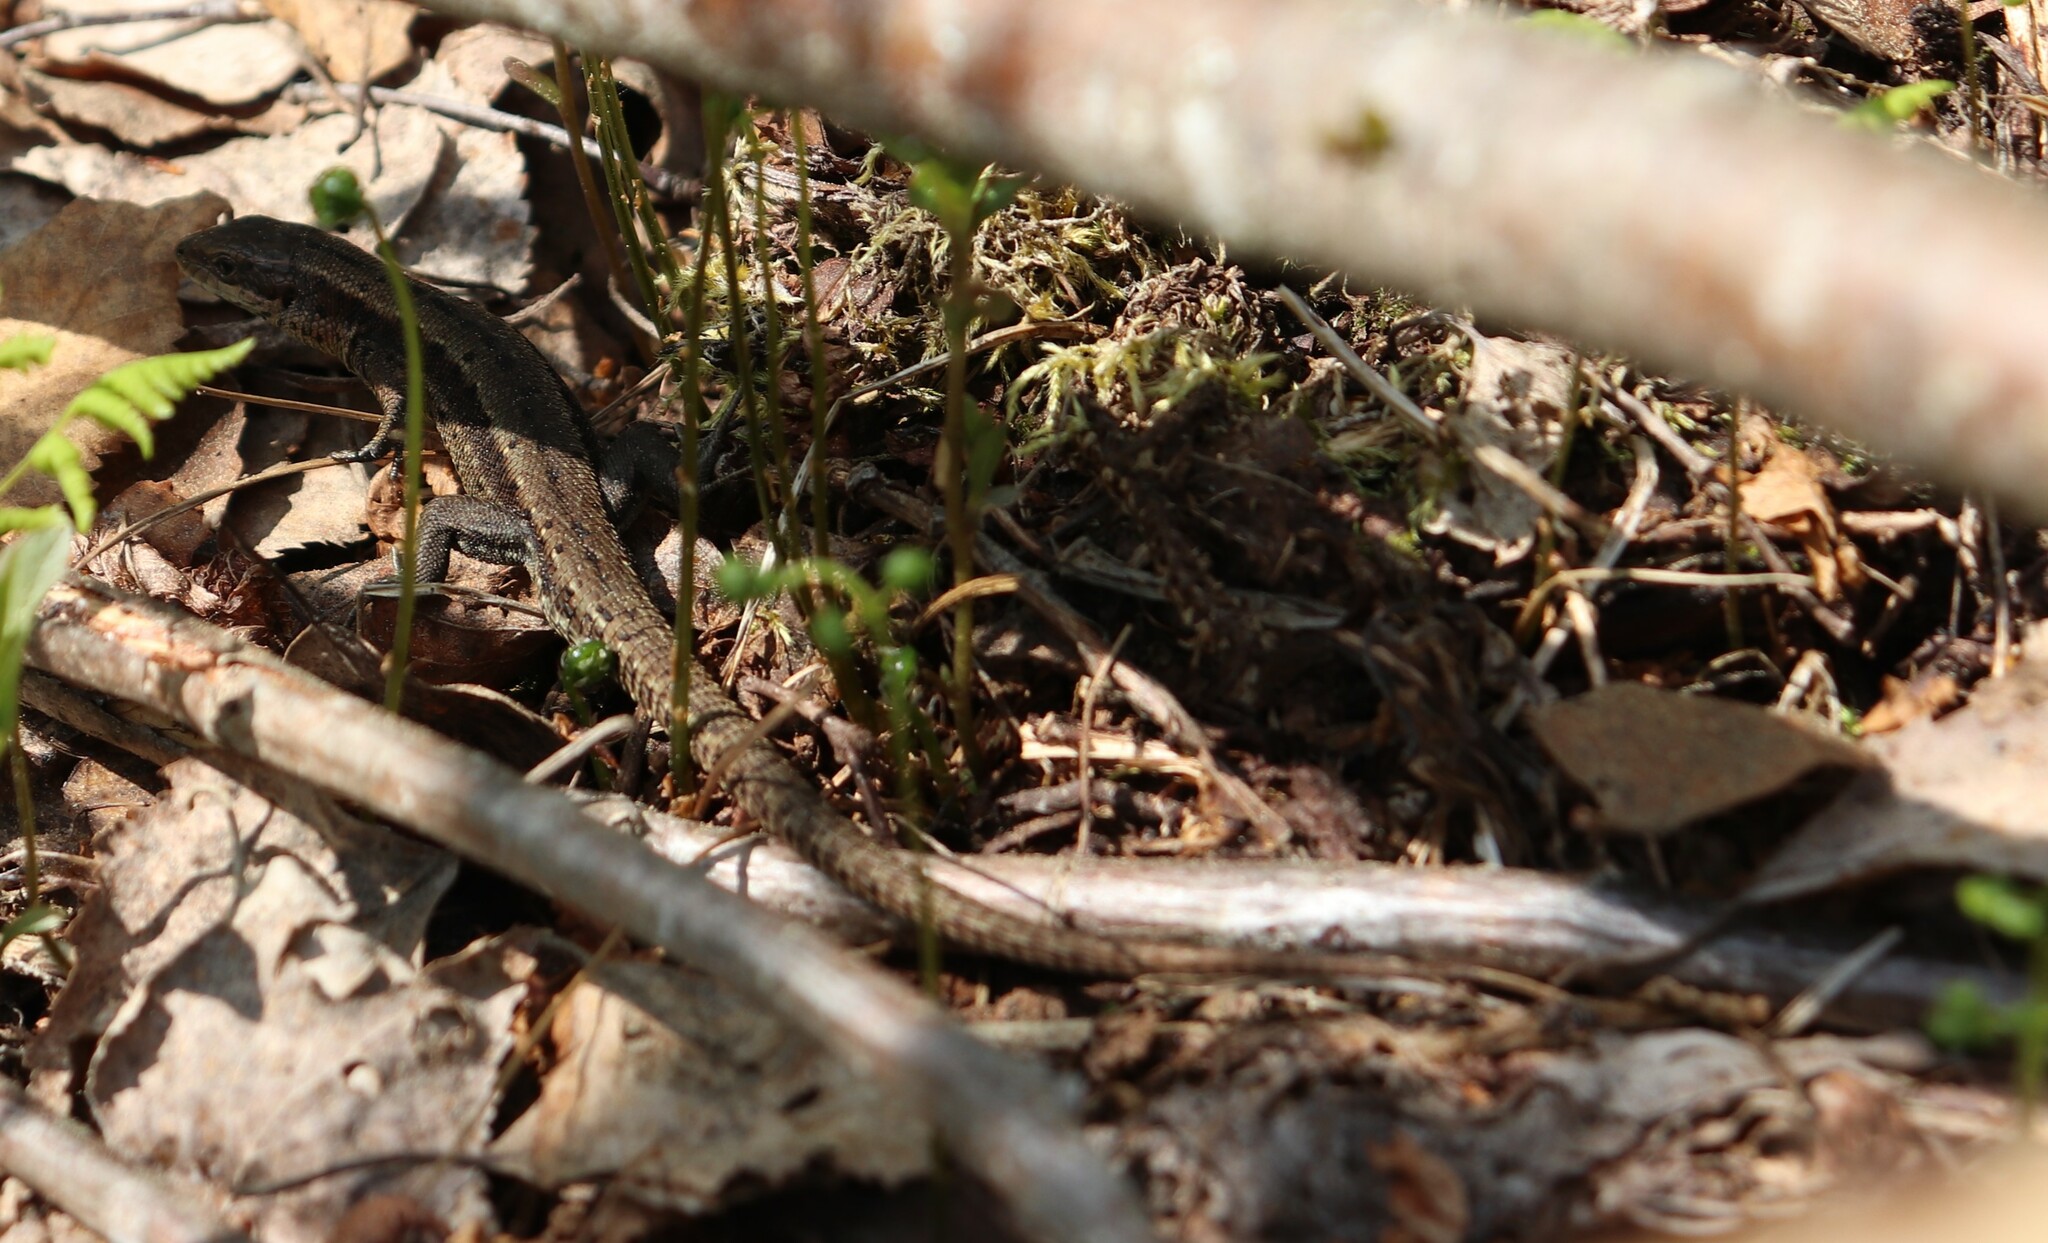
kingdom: Animalia
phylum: Chordata
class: Squamata
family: Lacertidae
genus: Zootoca
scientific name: Zootoca vivipara
